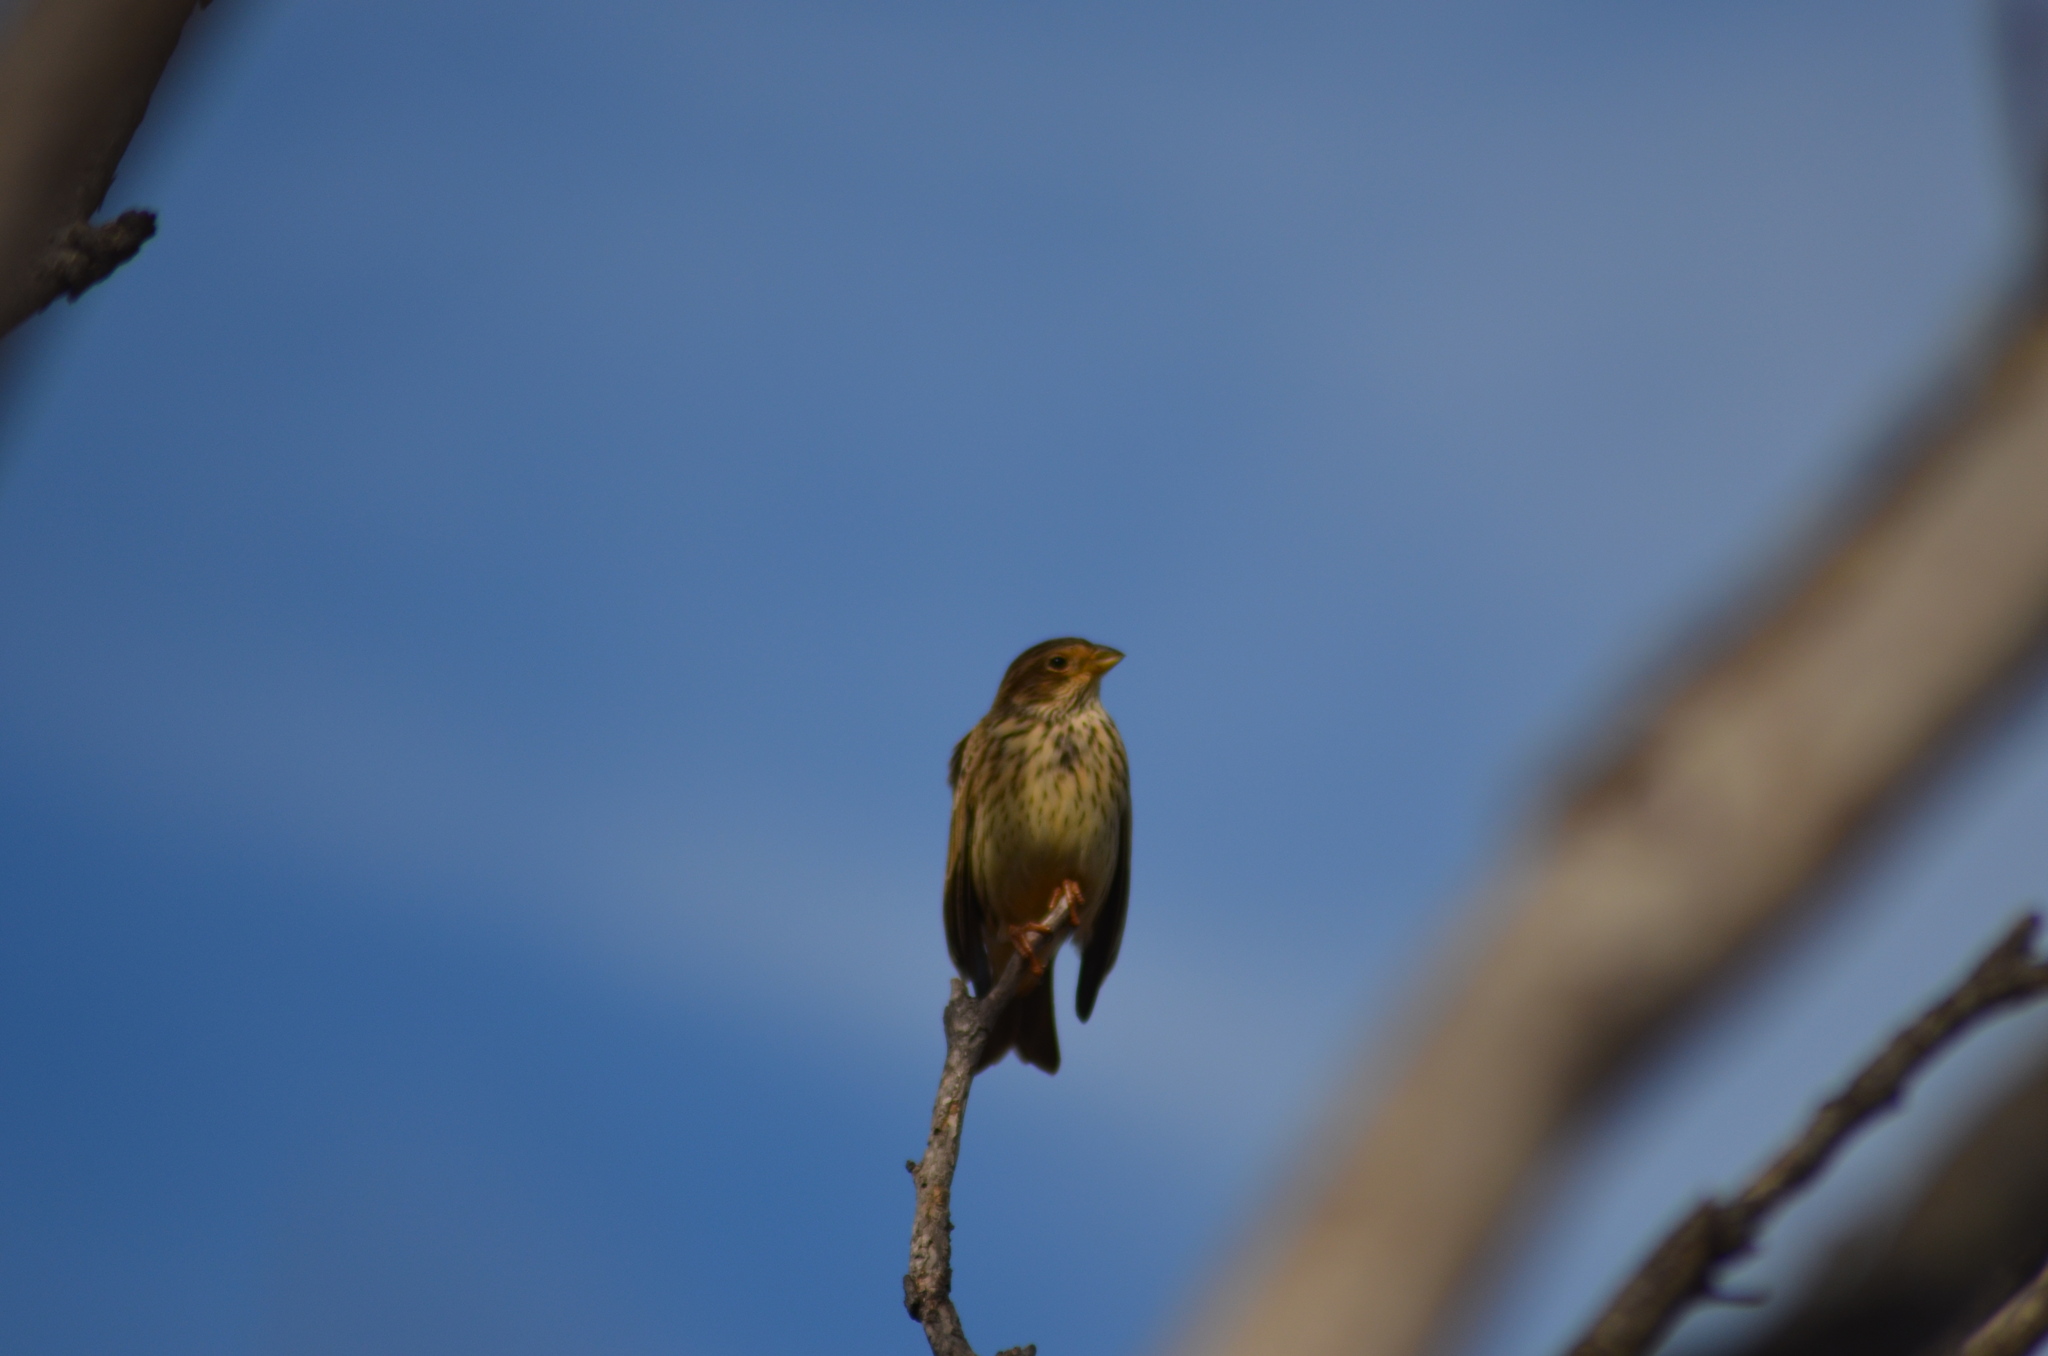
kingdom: Animalia
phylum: Chordata
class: Aves
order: Passeriformes
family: Emberizidae
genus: Emberiza
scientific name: Emberiza calandra
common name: Corn bunting
